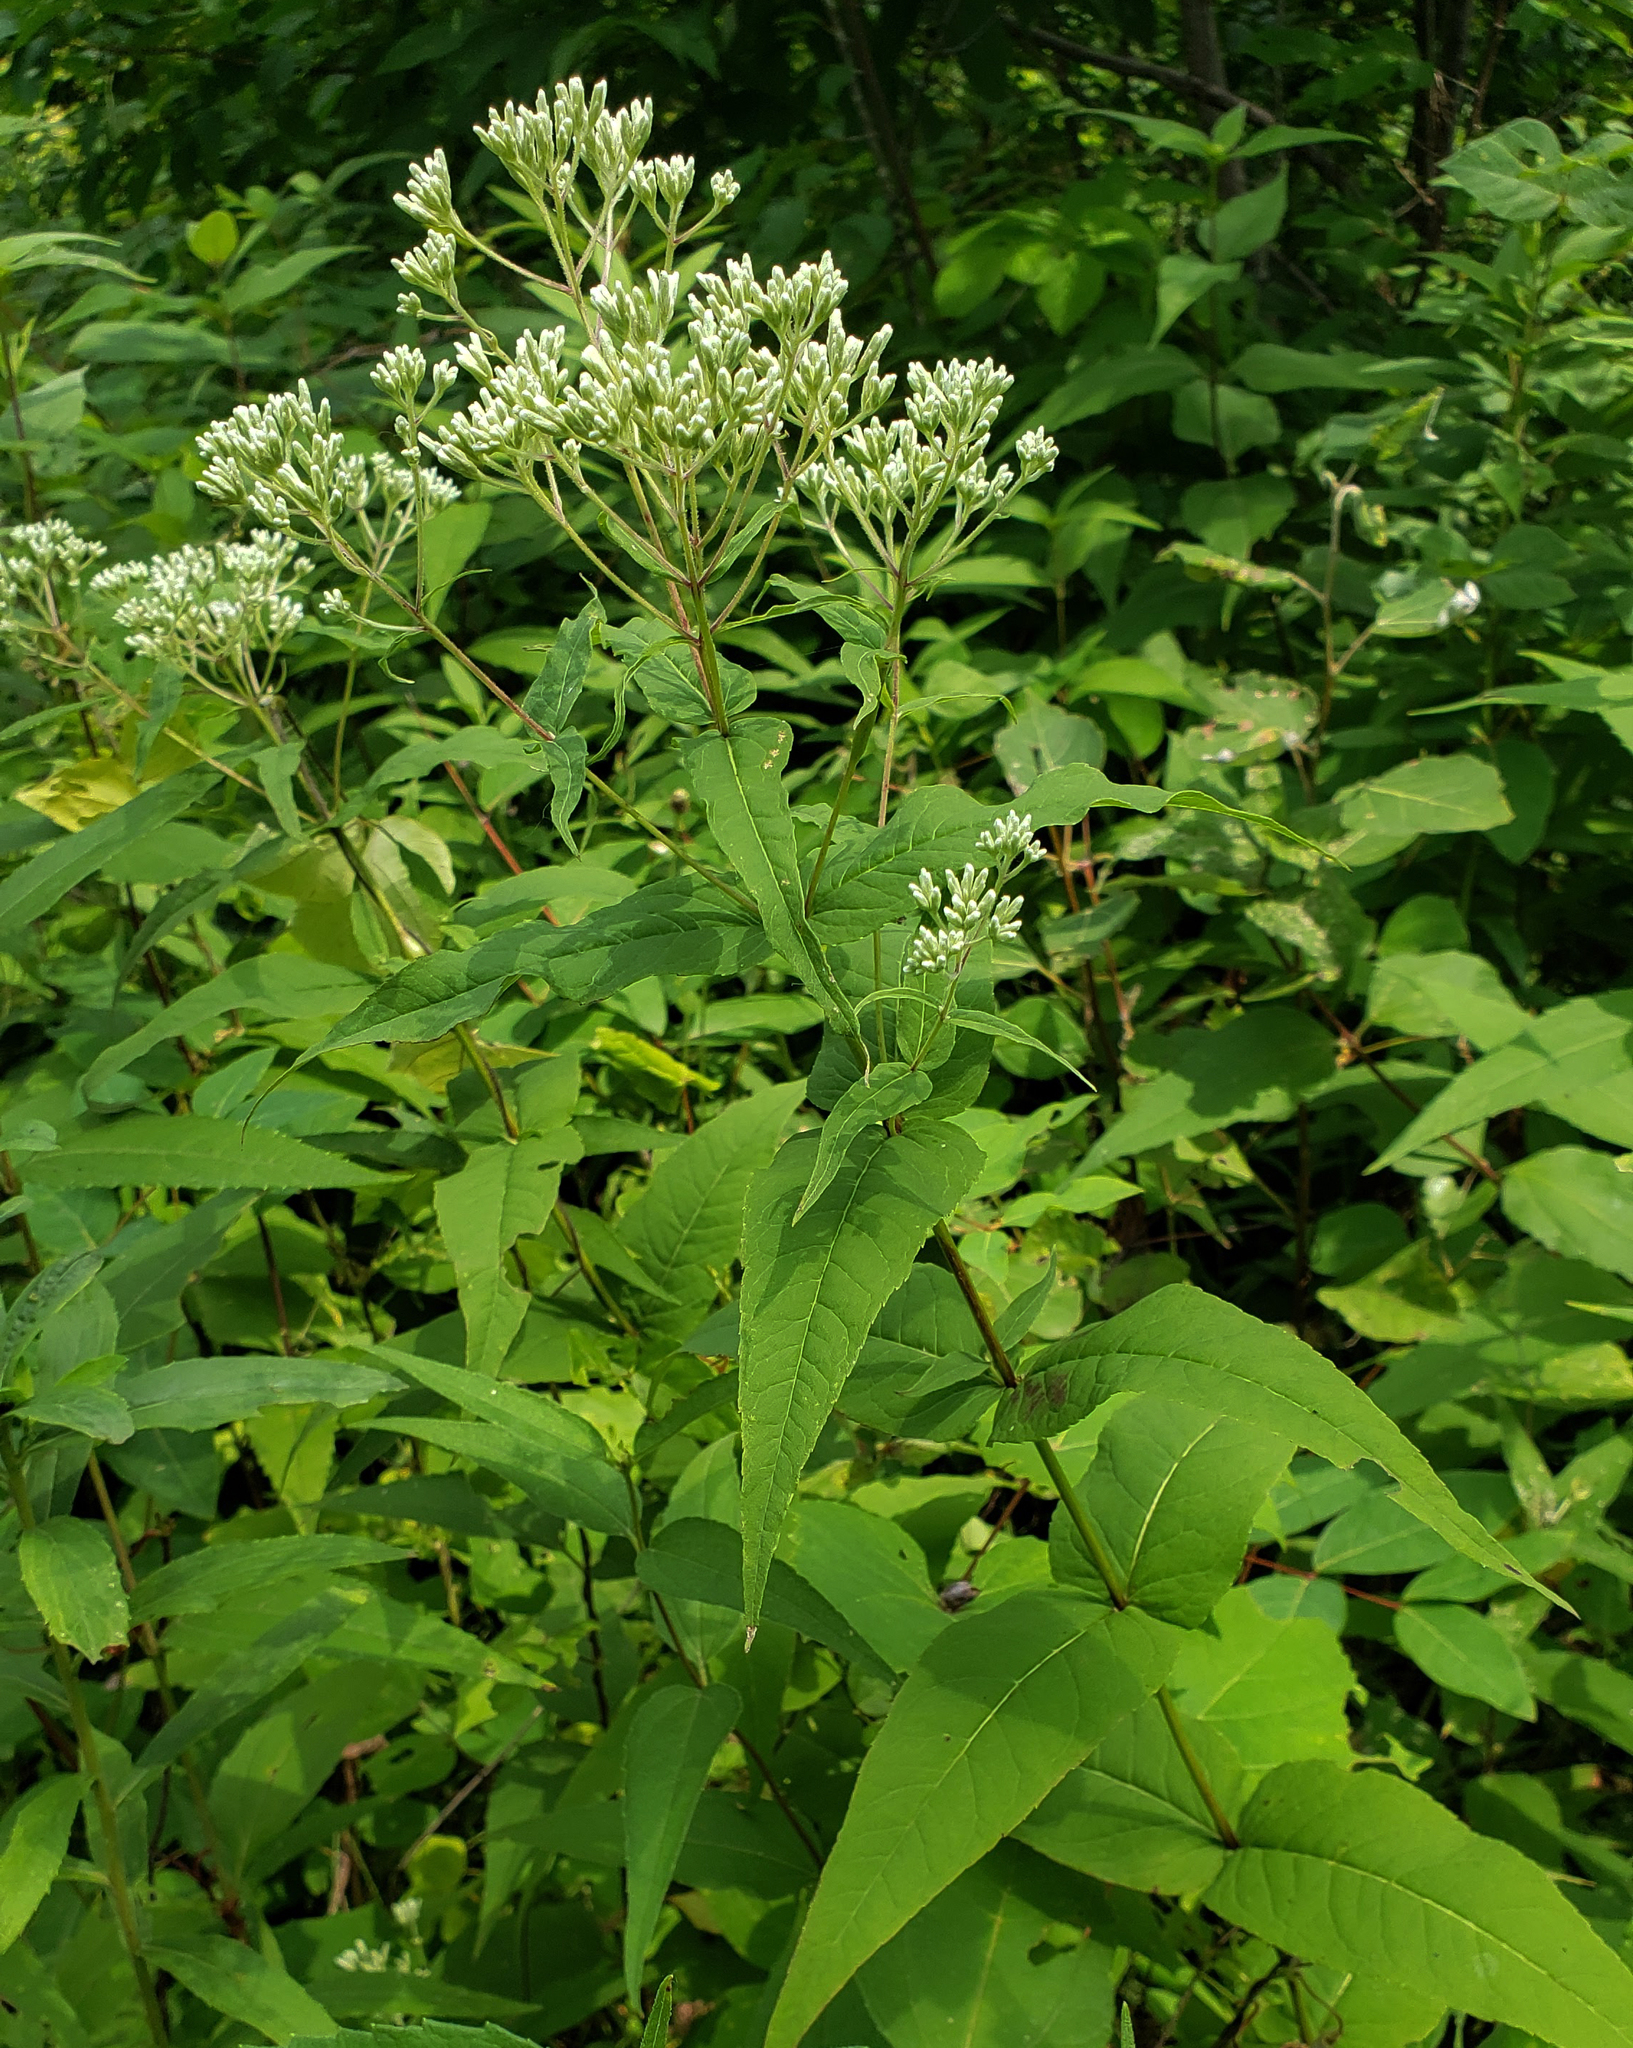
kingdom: Plantae
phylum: Tracheophyta
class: Magnoliopsida
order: Asterales
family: Asteraceae
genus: Eupatorium
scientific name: Eupatorium sessilifolium
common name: Upland boneset
